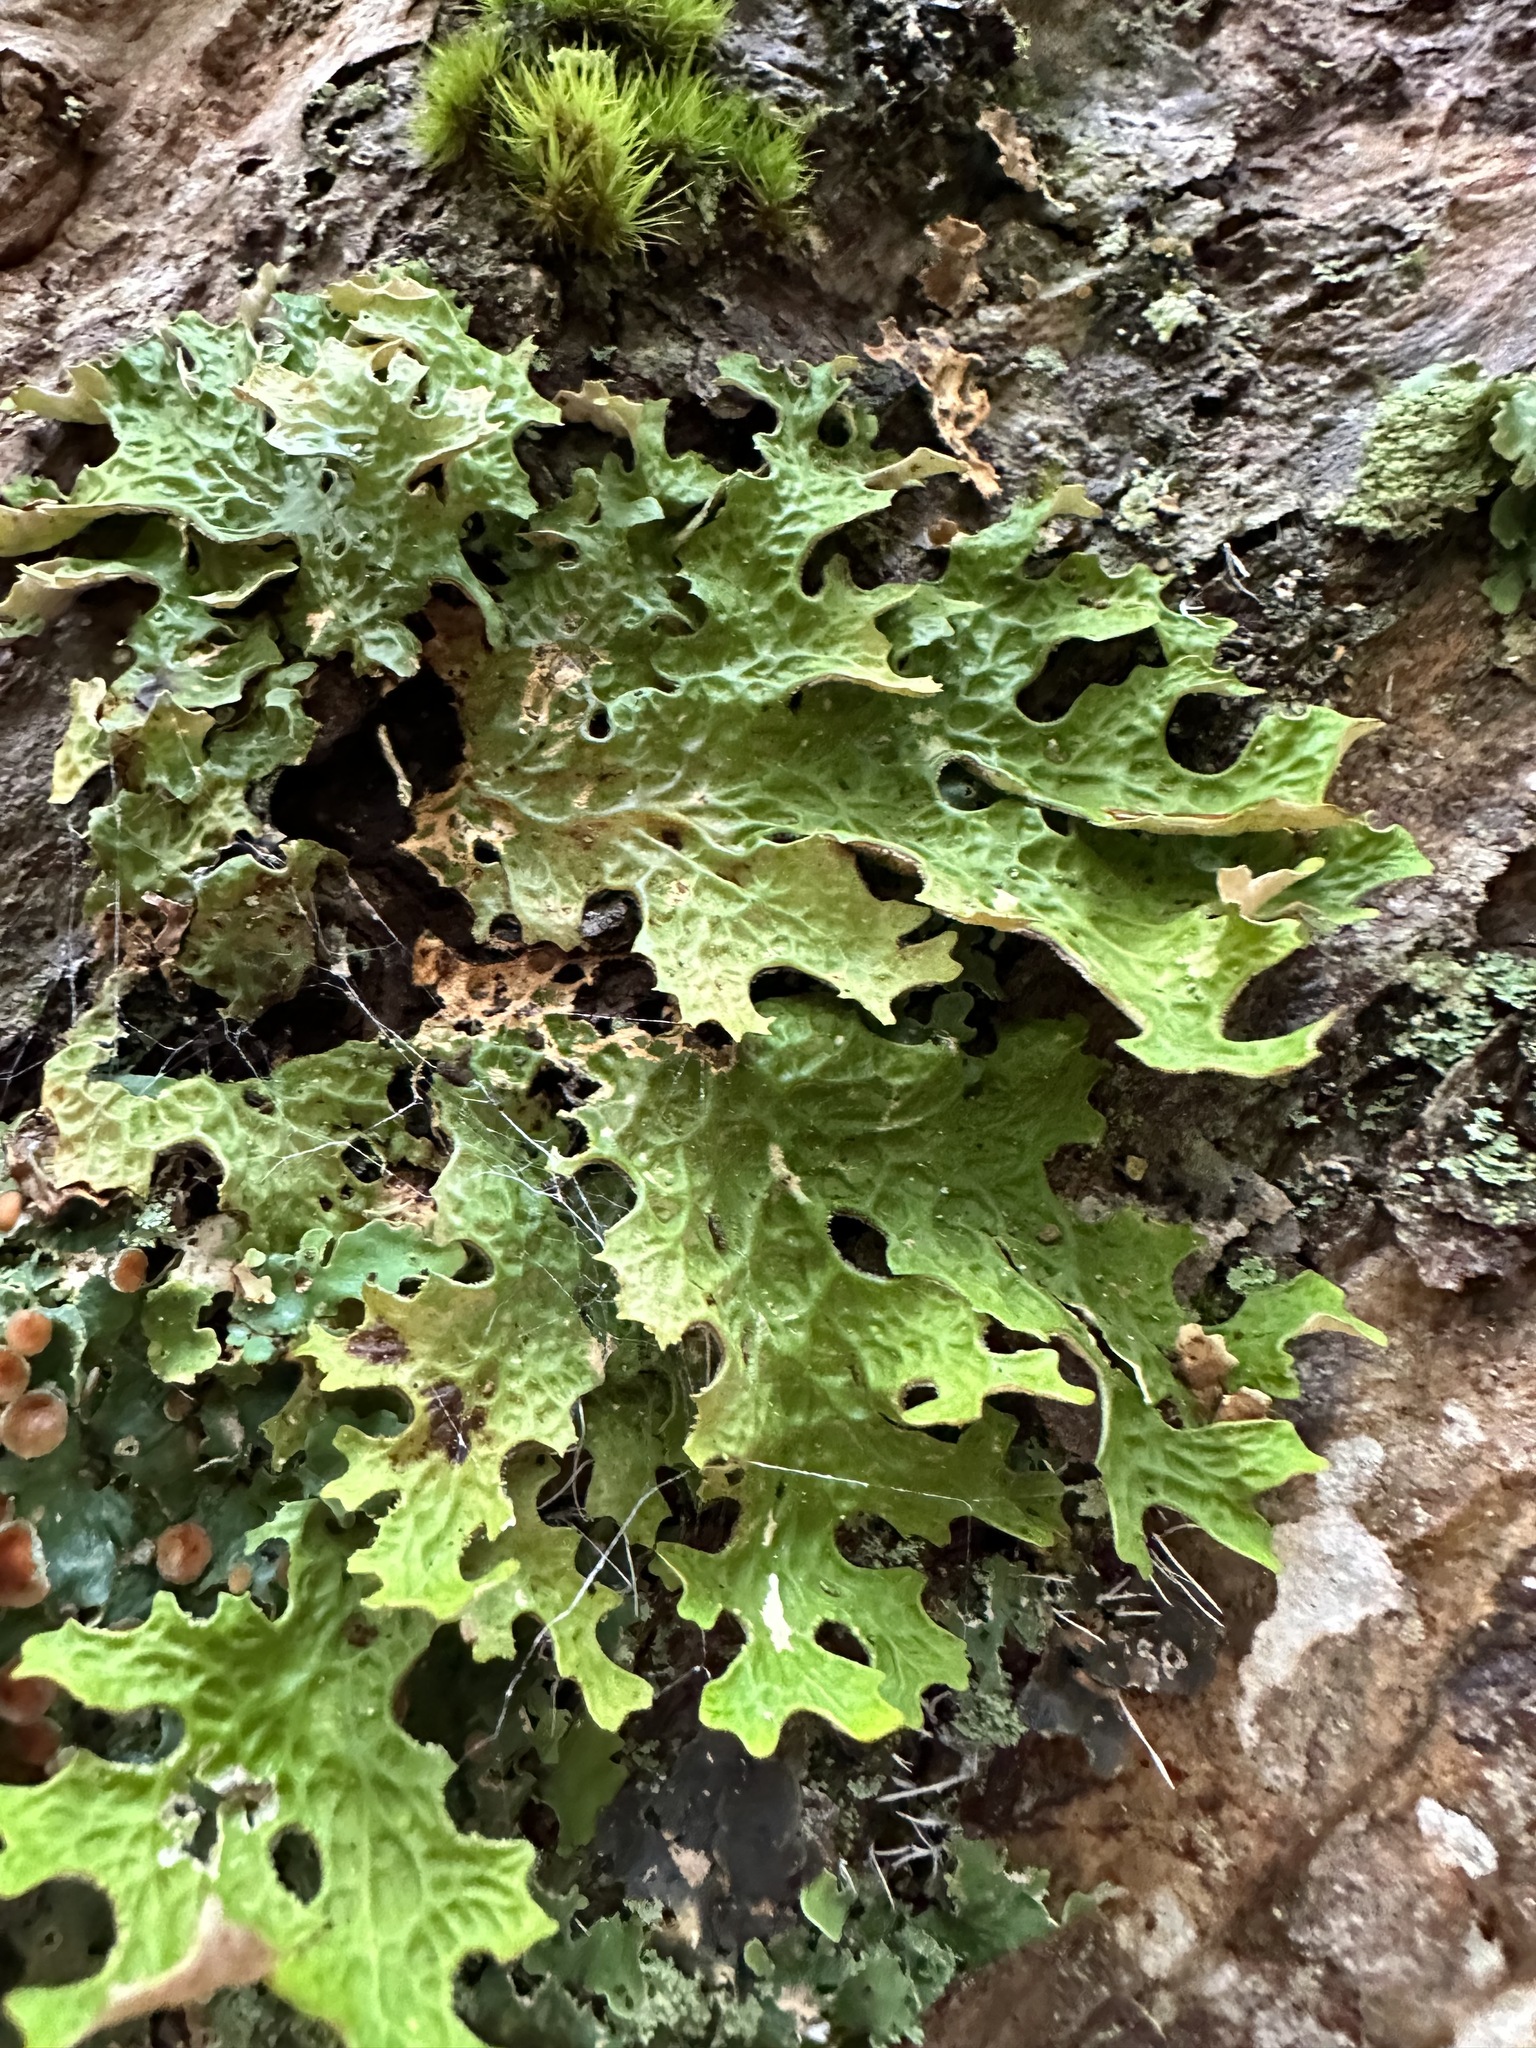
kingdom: Fungi
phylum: Ascomycota
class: Lecanoromycetes
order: Peltigerales
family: Lobariaceae
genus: Lobaria
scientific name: Lobaria pulmonaria
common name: Lungwort
